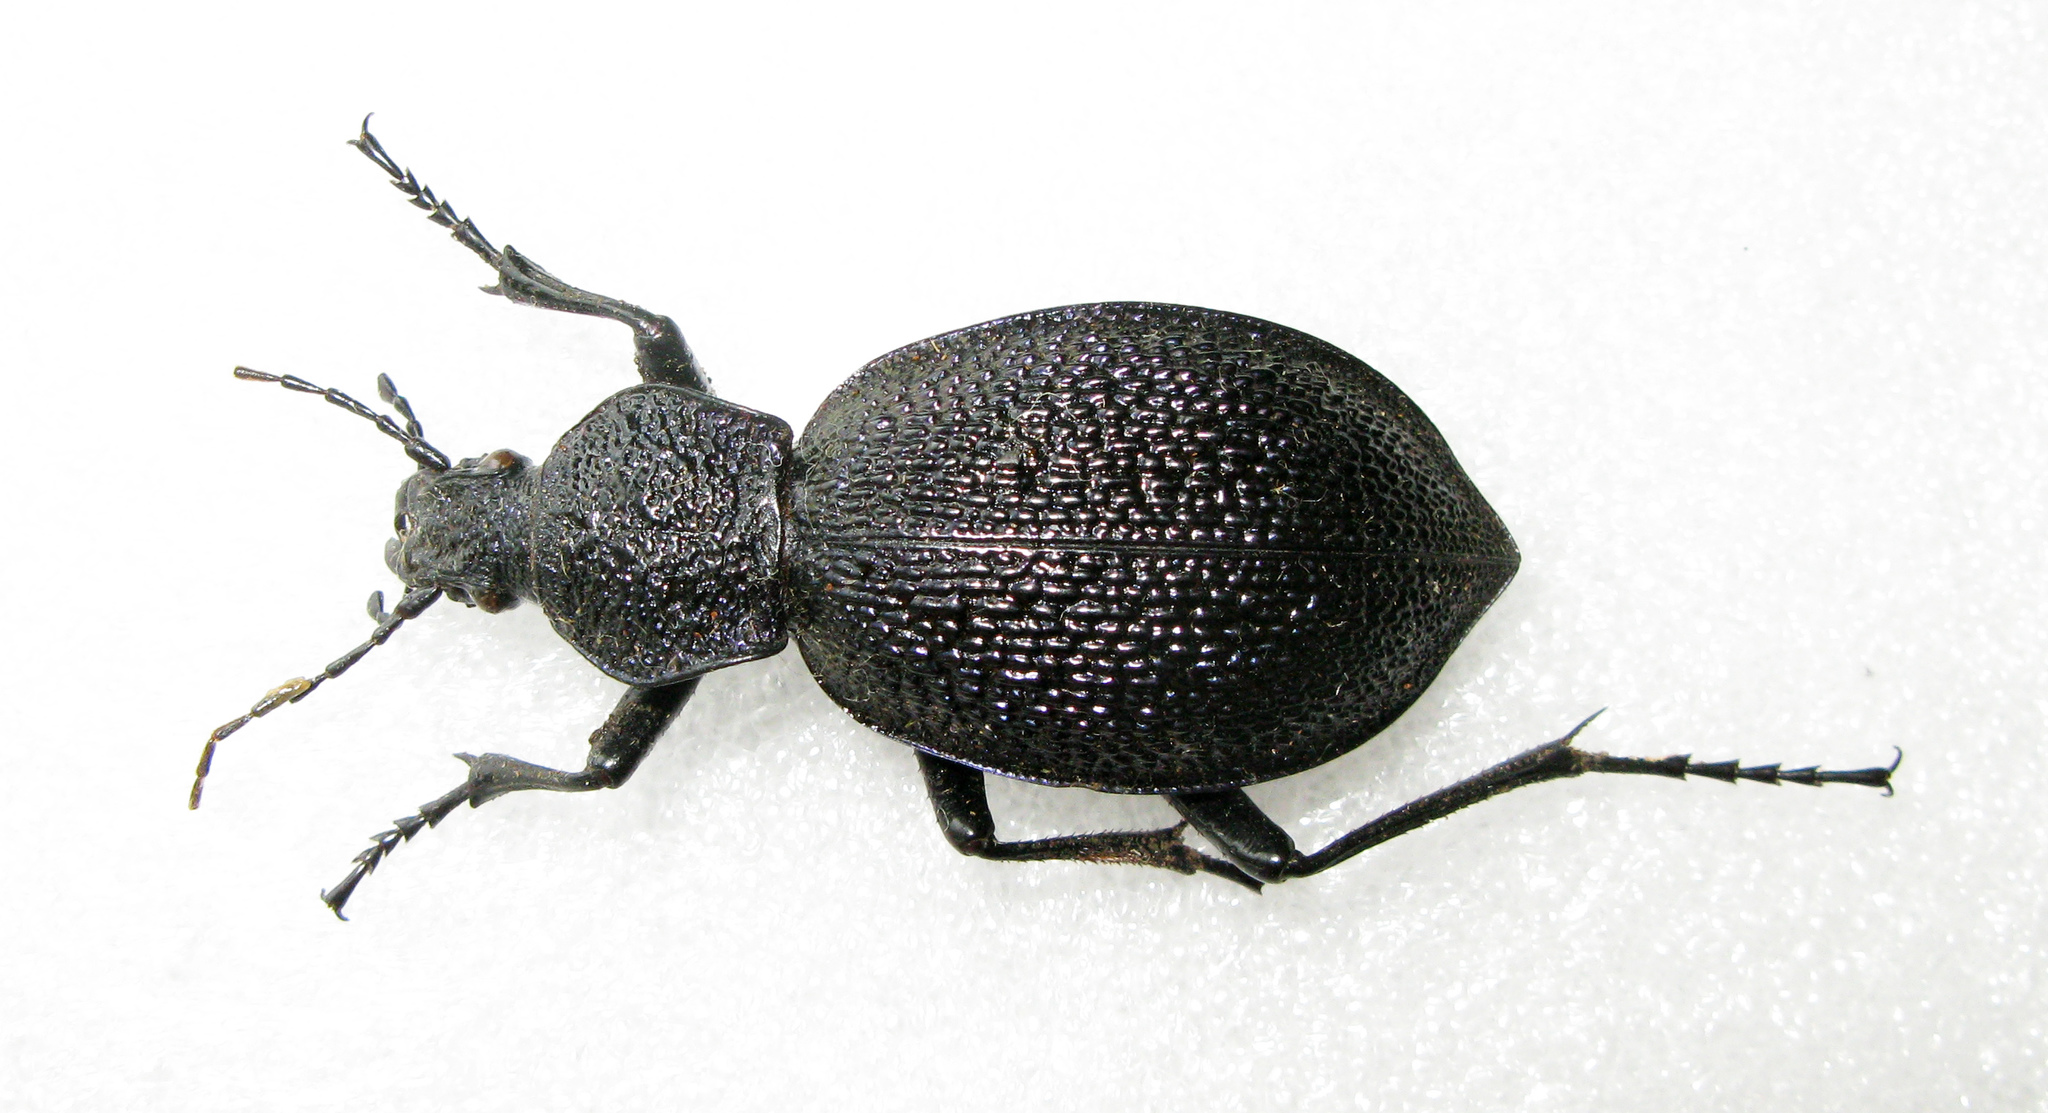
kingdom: Animalia
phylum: Arthropoda
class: Insecta
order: Coleoptera
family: Carabidae
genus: Carabus
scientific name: Carabus scabrosus
